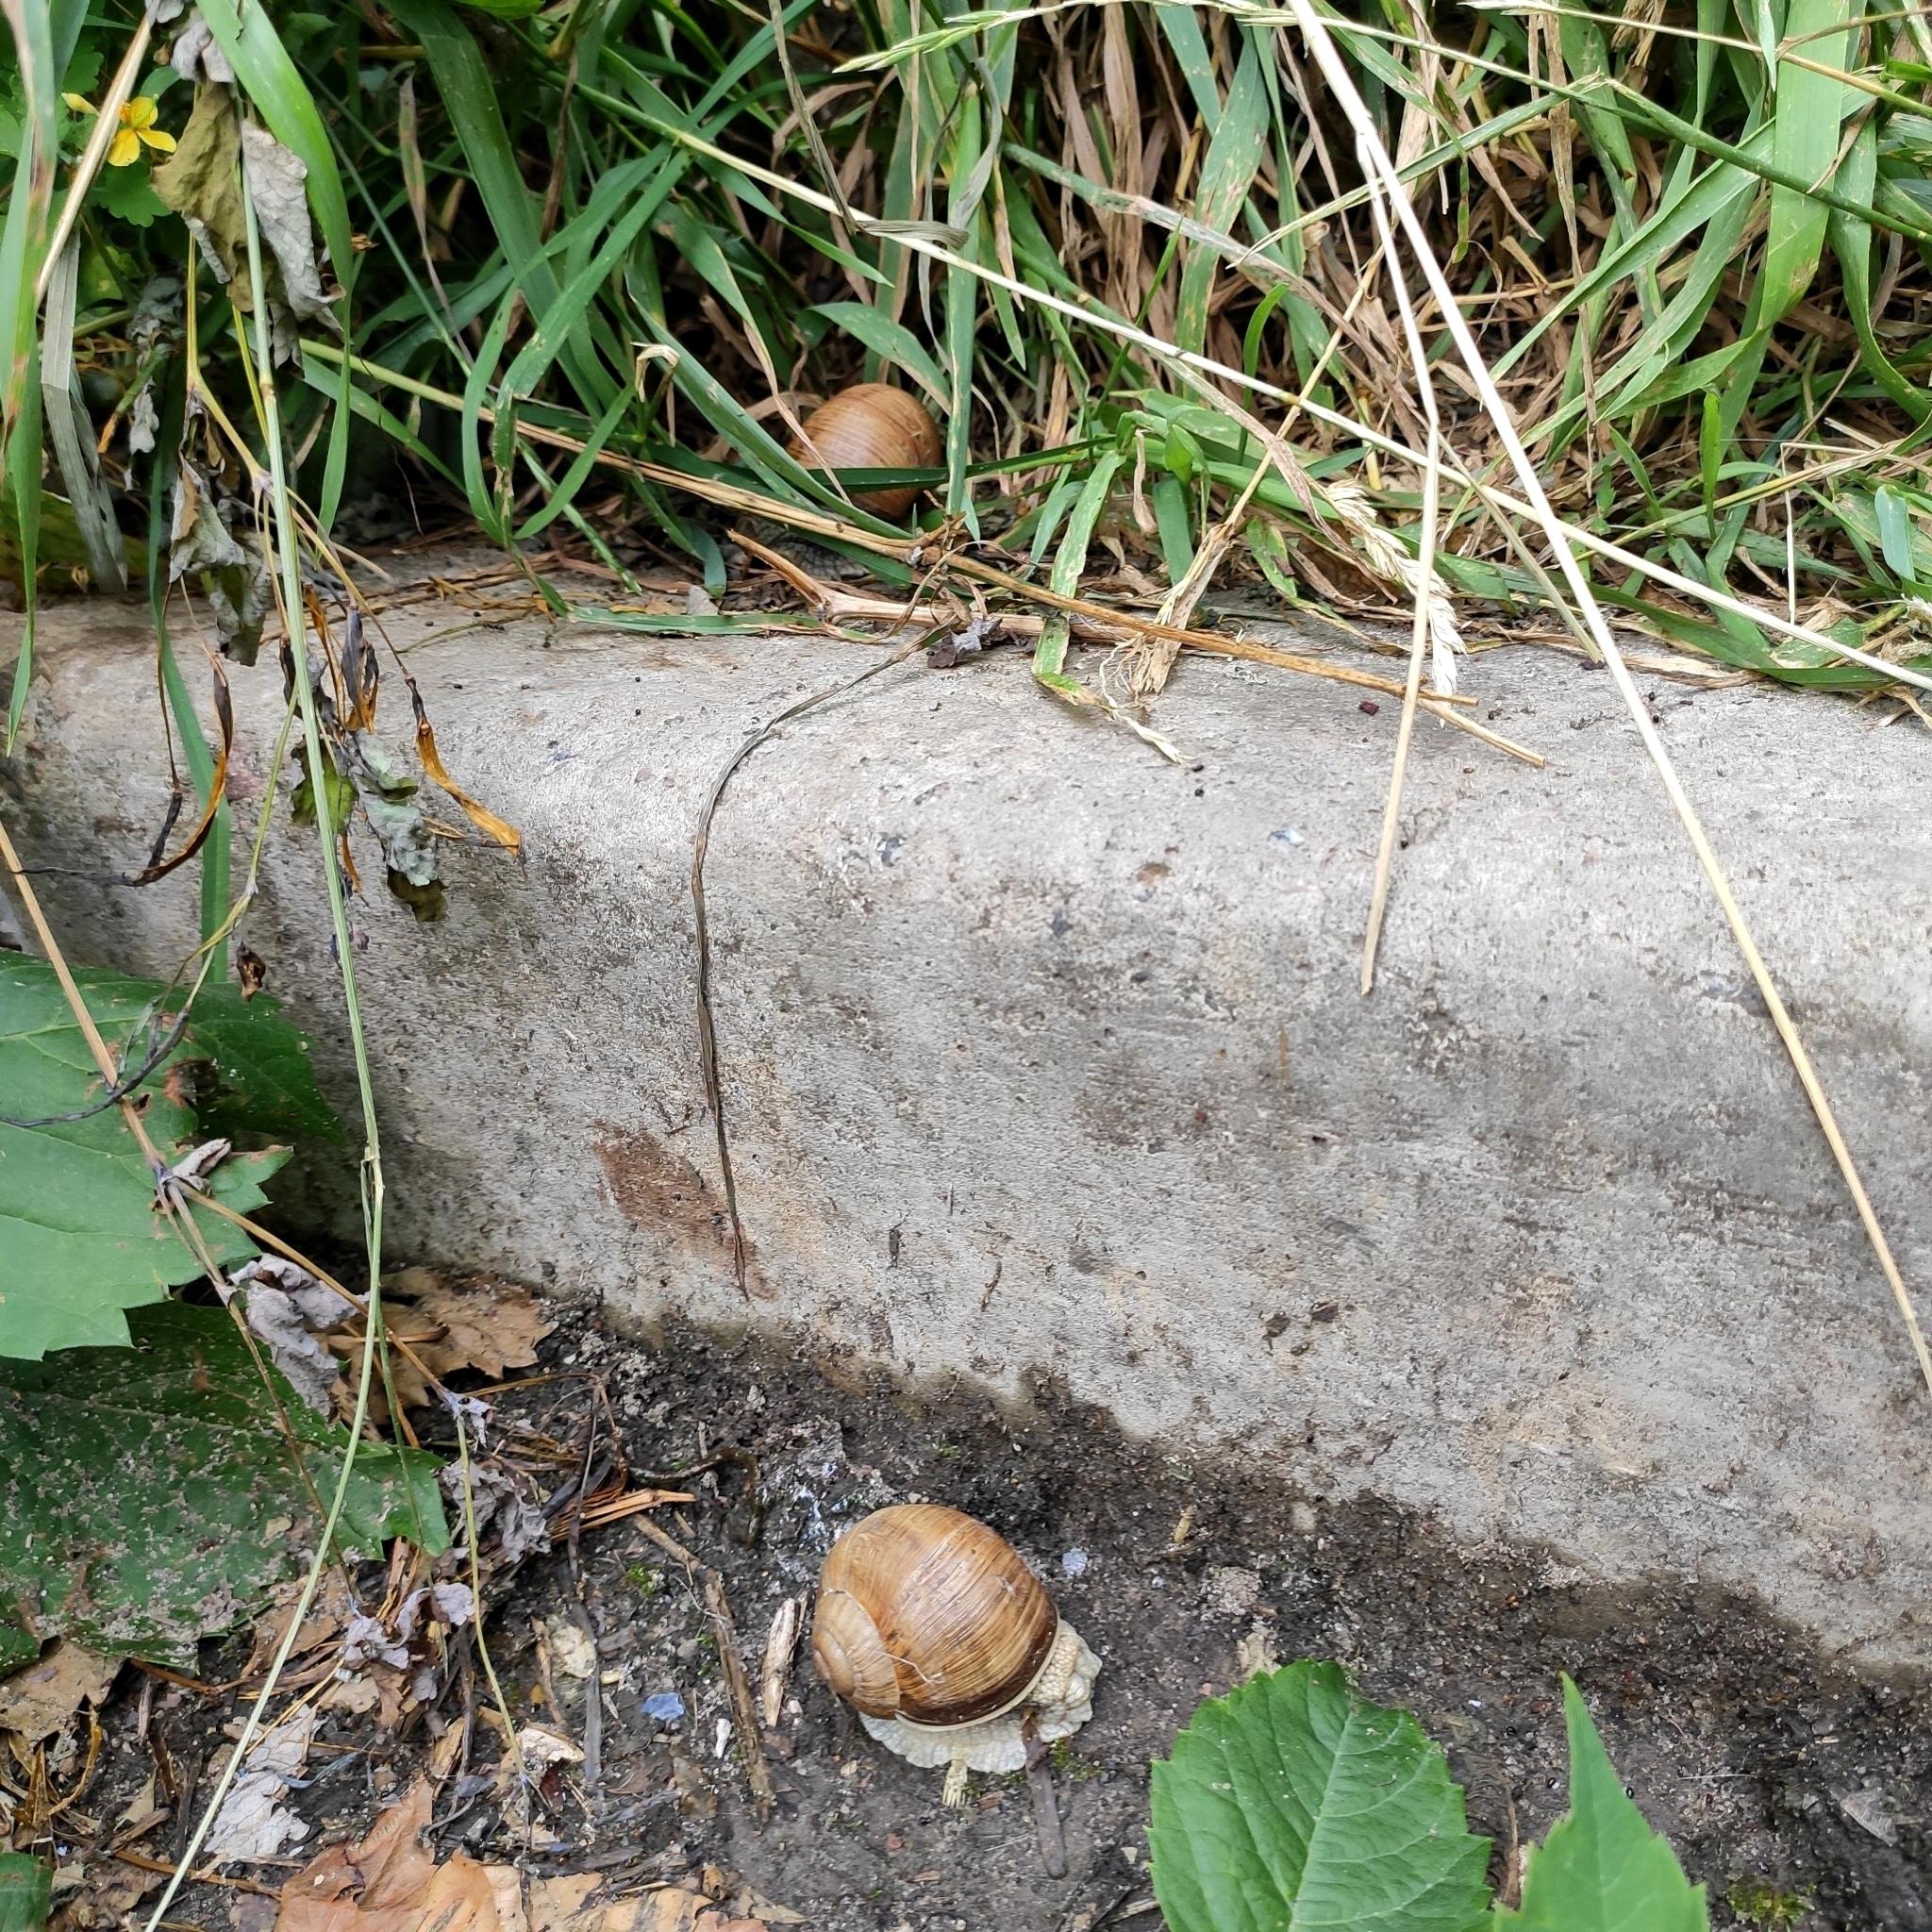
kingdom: Animalia
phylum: Mollusca
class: Gastropoda
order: Stylommatophora
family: Helicidae
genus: Helix
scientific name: Helix pomatia
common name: Roman snail
